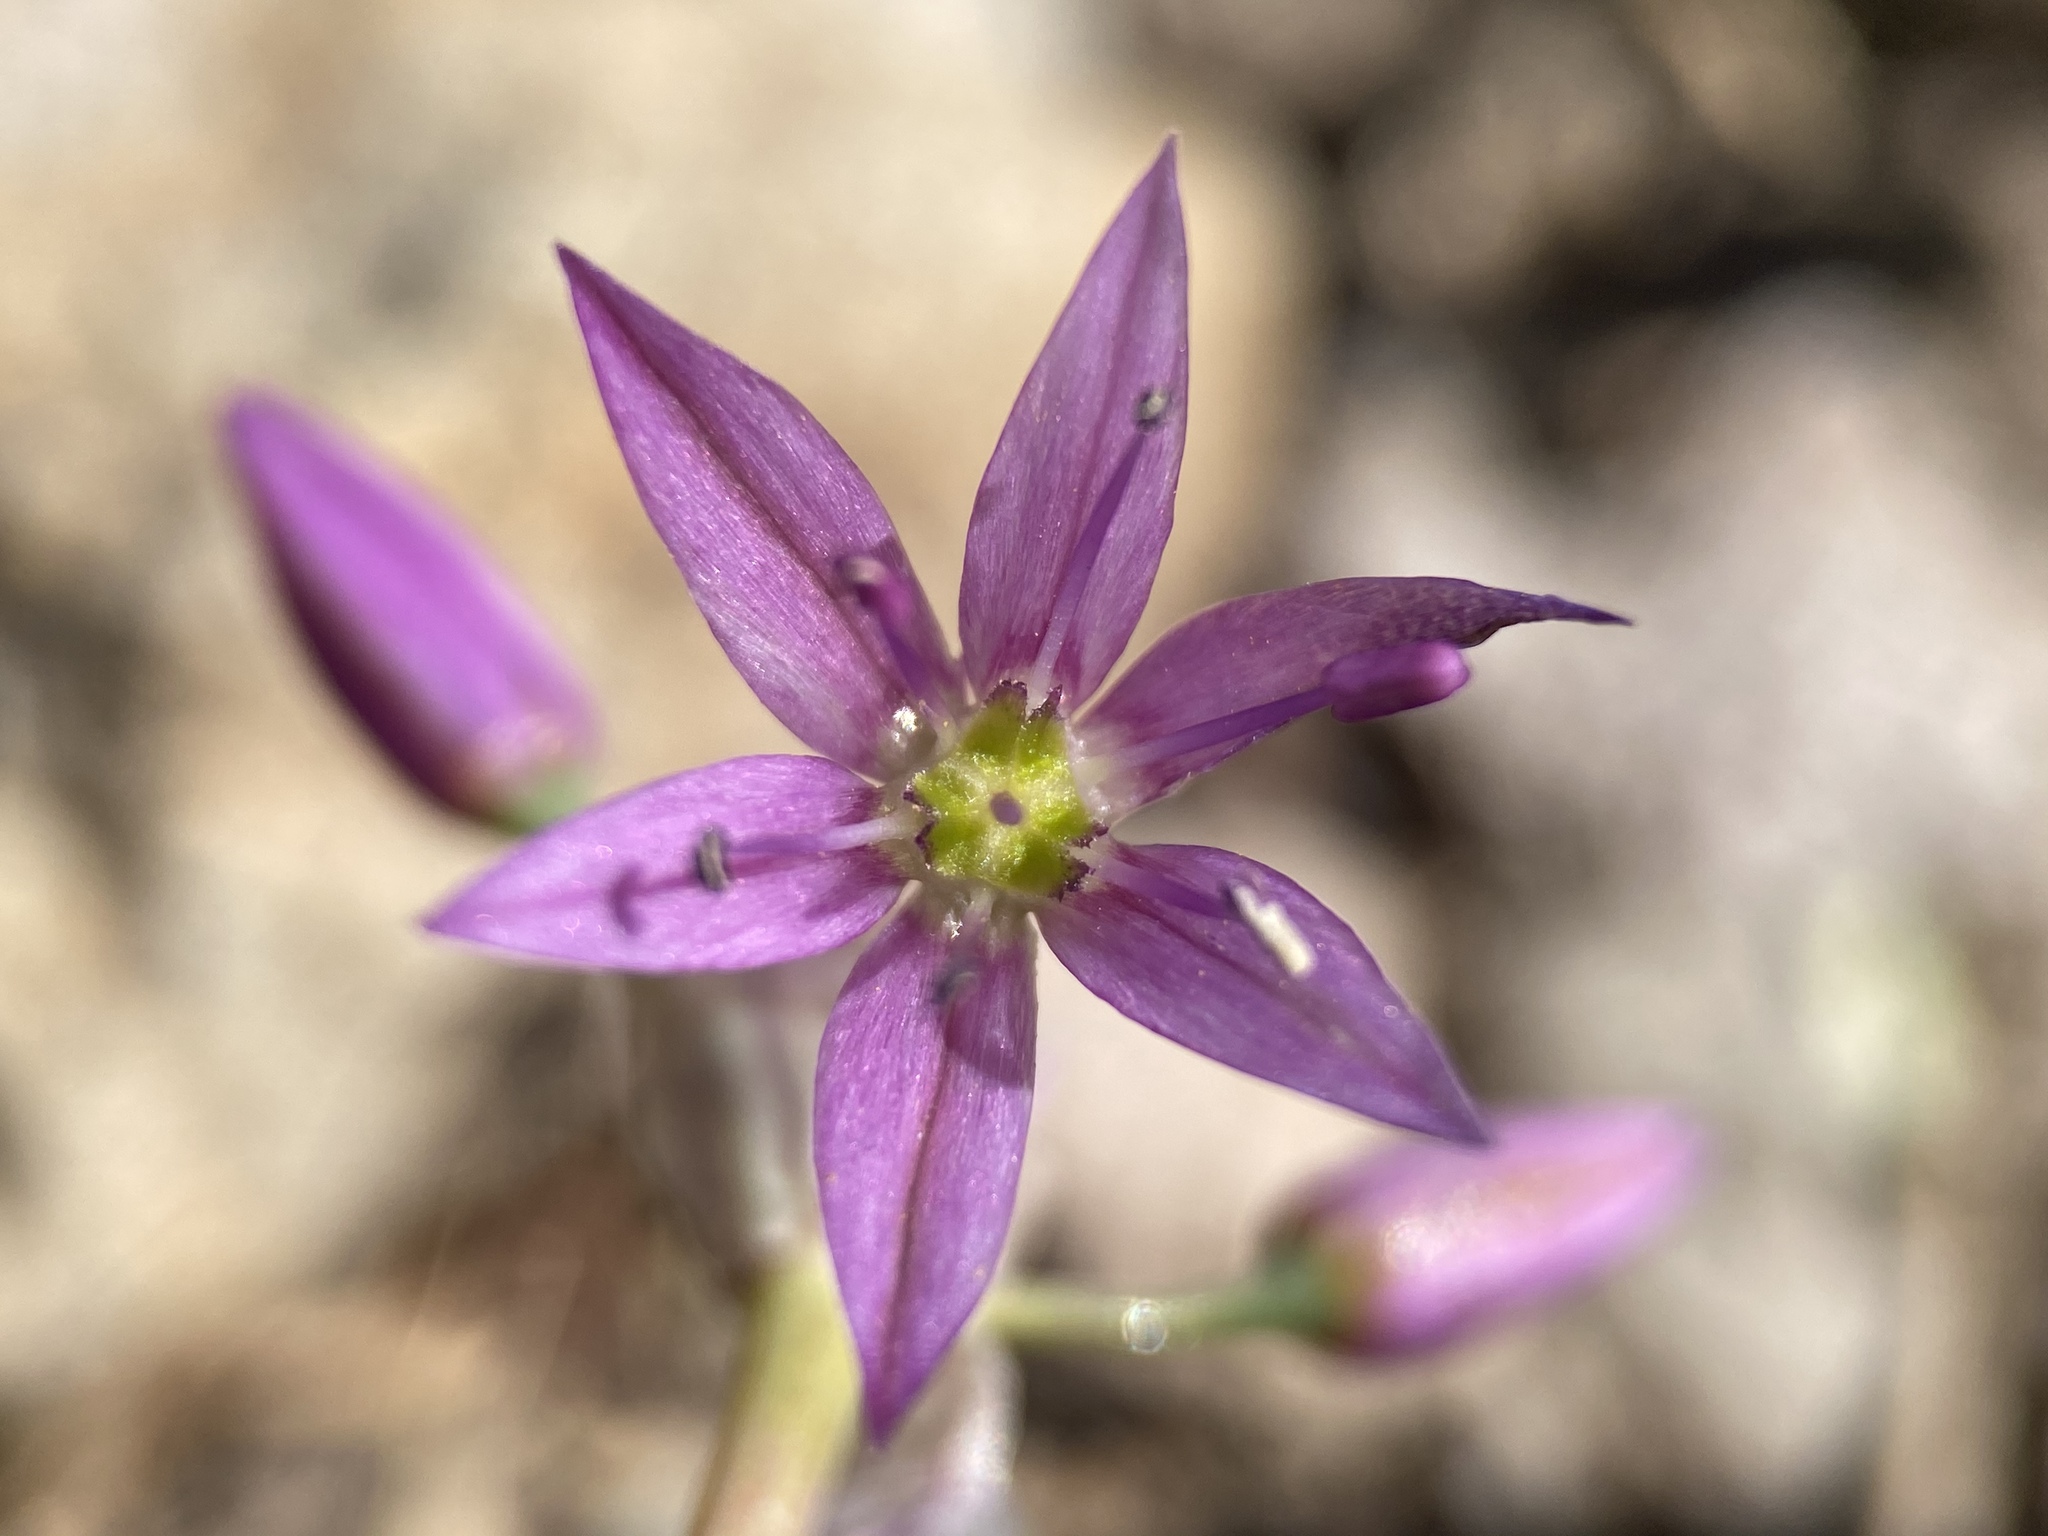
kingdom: Plantae
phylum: Tracheophyta
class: Liliopsida
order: Asparagales
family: Amaryllidaceae
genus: Allium
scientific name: Allium bisceptrum
